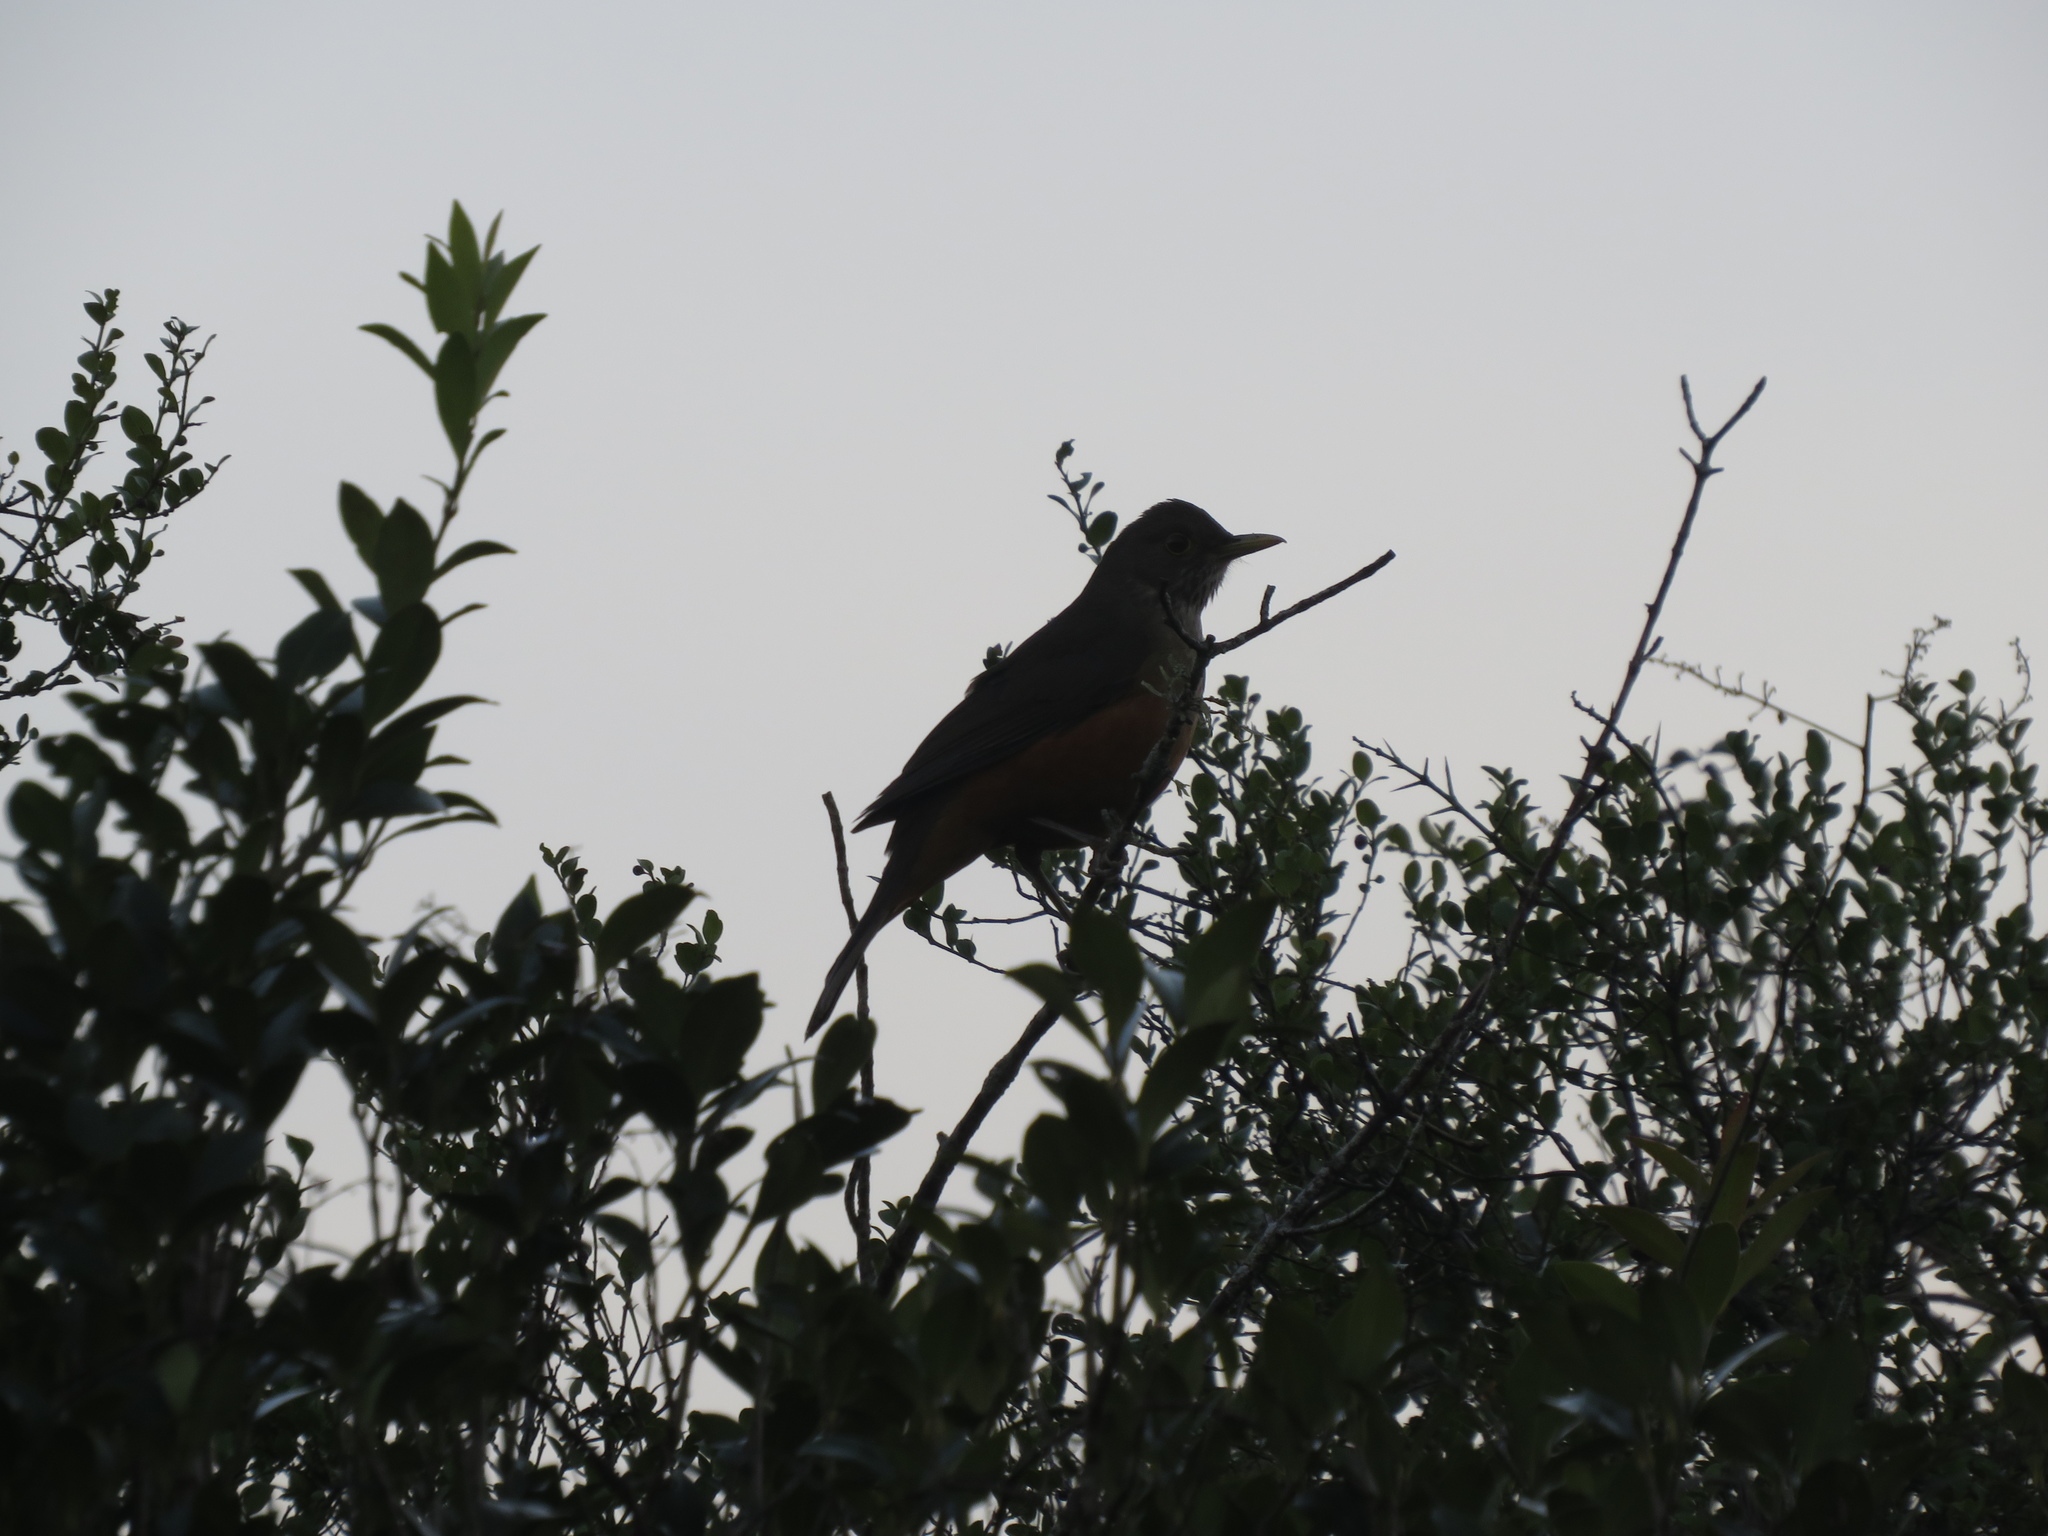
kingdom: Animalia
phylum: Chordata
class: Aves
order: Passeriformes
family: Turdidae
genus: Turdus
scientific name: Turdus rufiventris
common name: Rufous-bellied thrush
